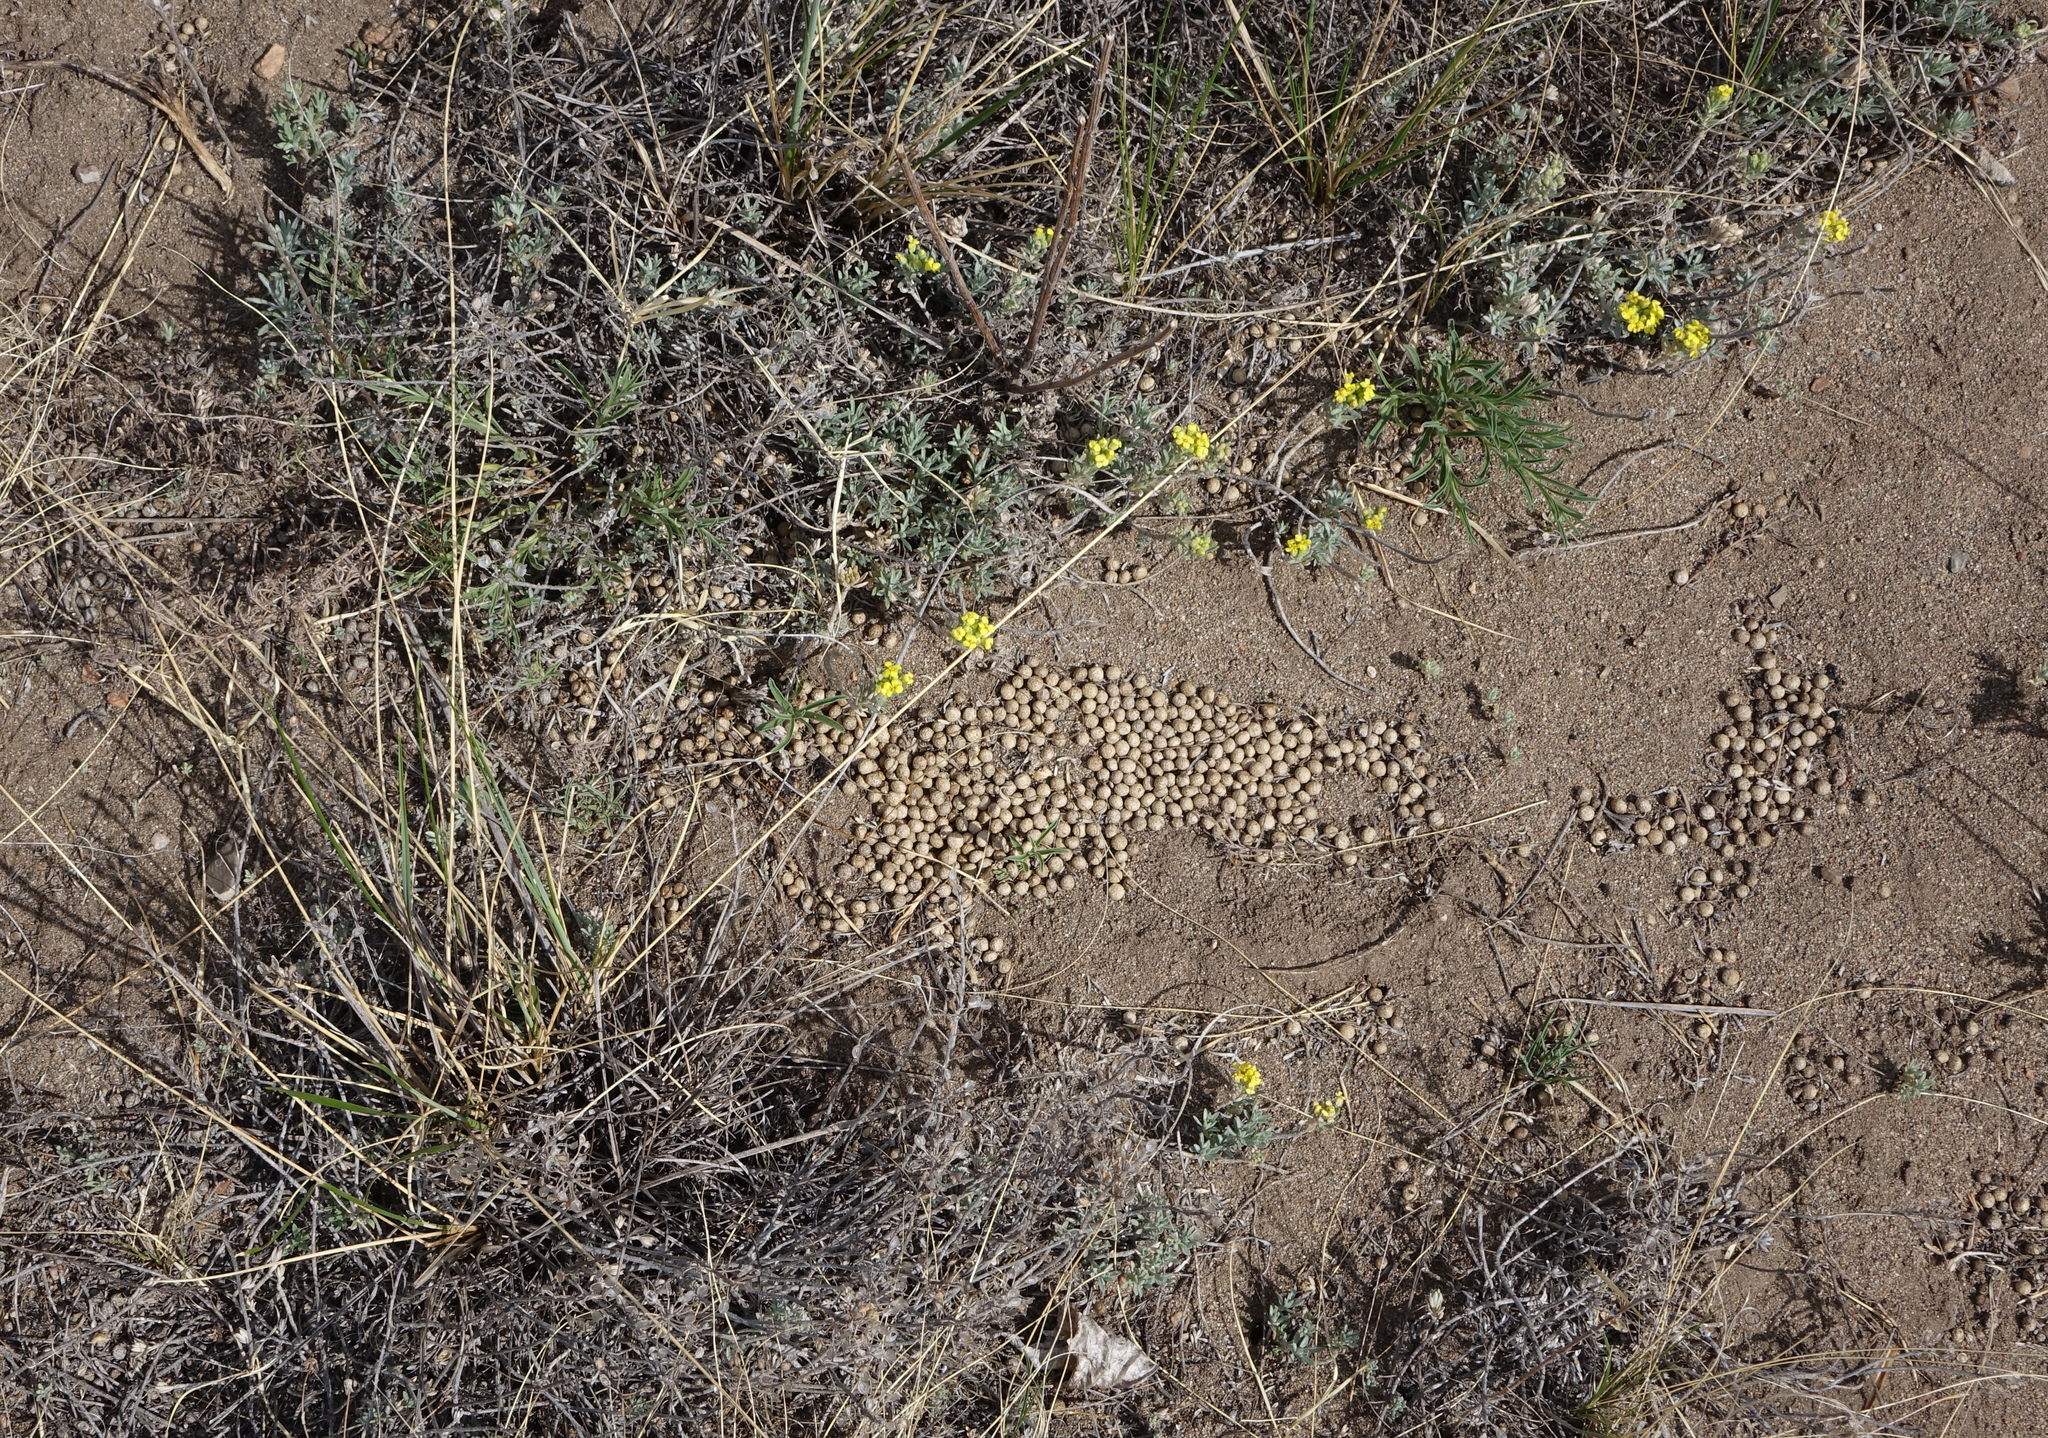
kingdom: Animalia
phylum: Chordata
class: Mammalia
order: Lagomorpha
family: Ochotonidae
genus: Ochotona
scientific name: Ochotona dauurica
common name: Daurian pika
